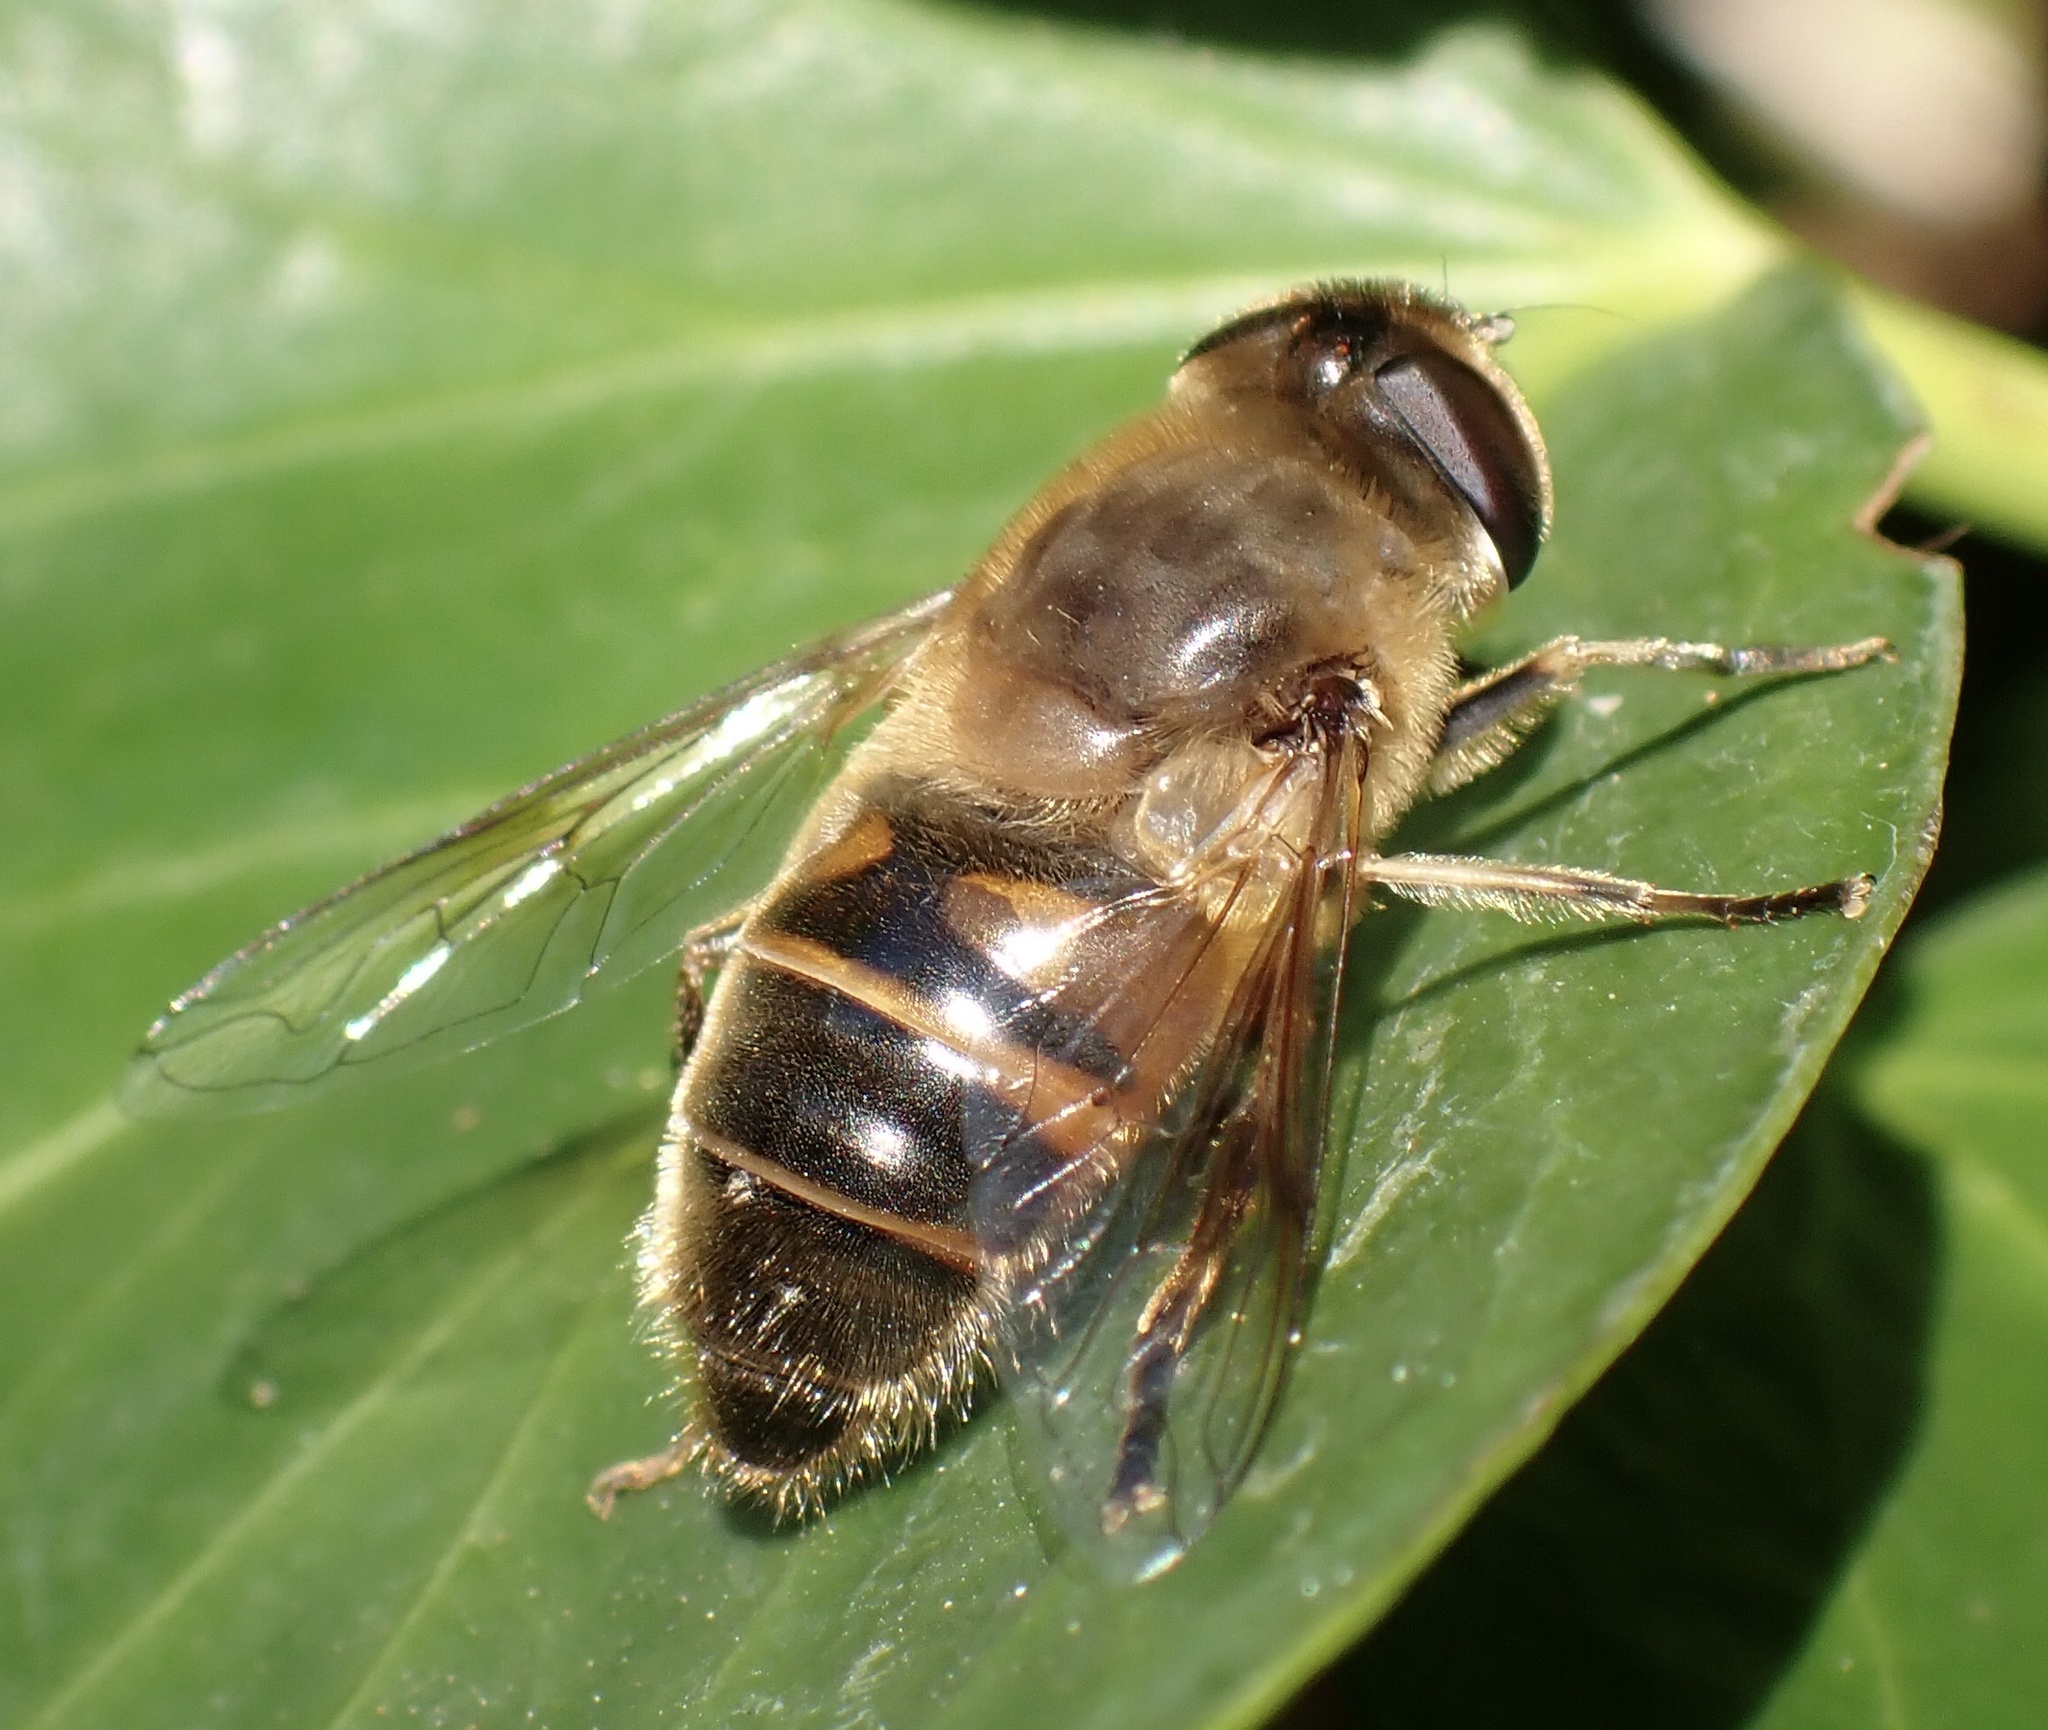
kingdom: Animalia
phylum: Arthropoda
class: Insecta
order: Diptera
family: Syrphidae
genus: Eristalis
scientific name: Eristalis tenax
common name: Drone fly
